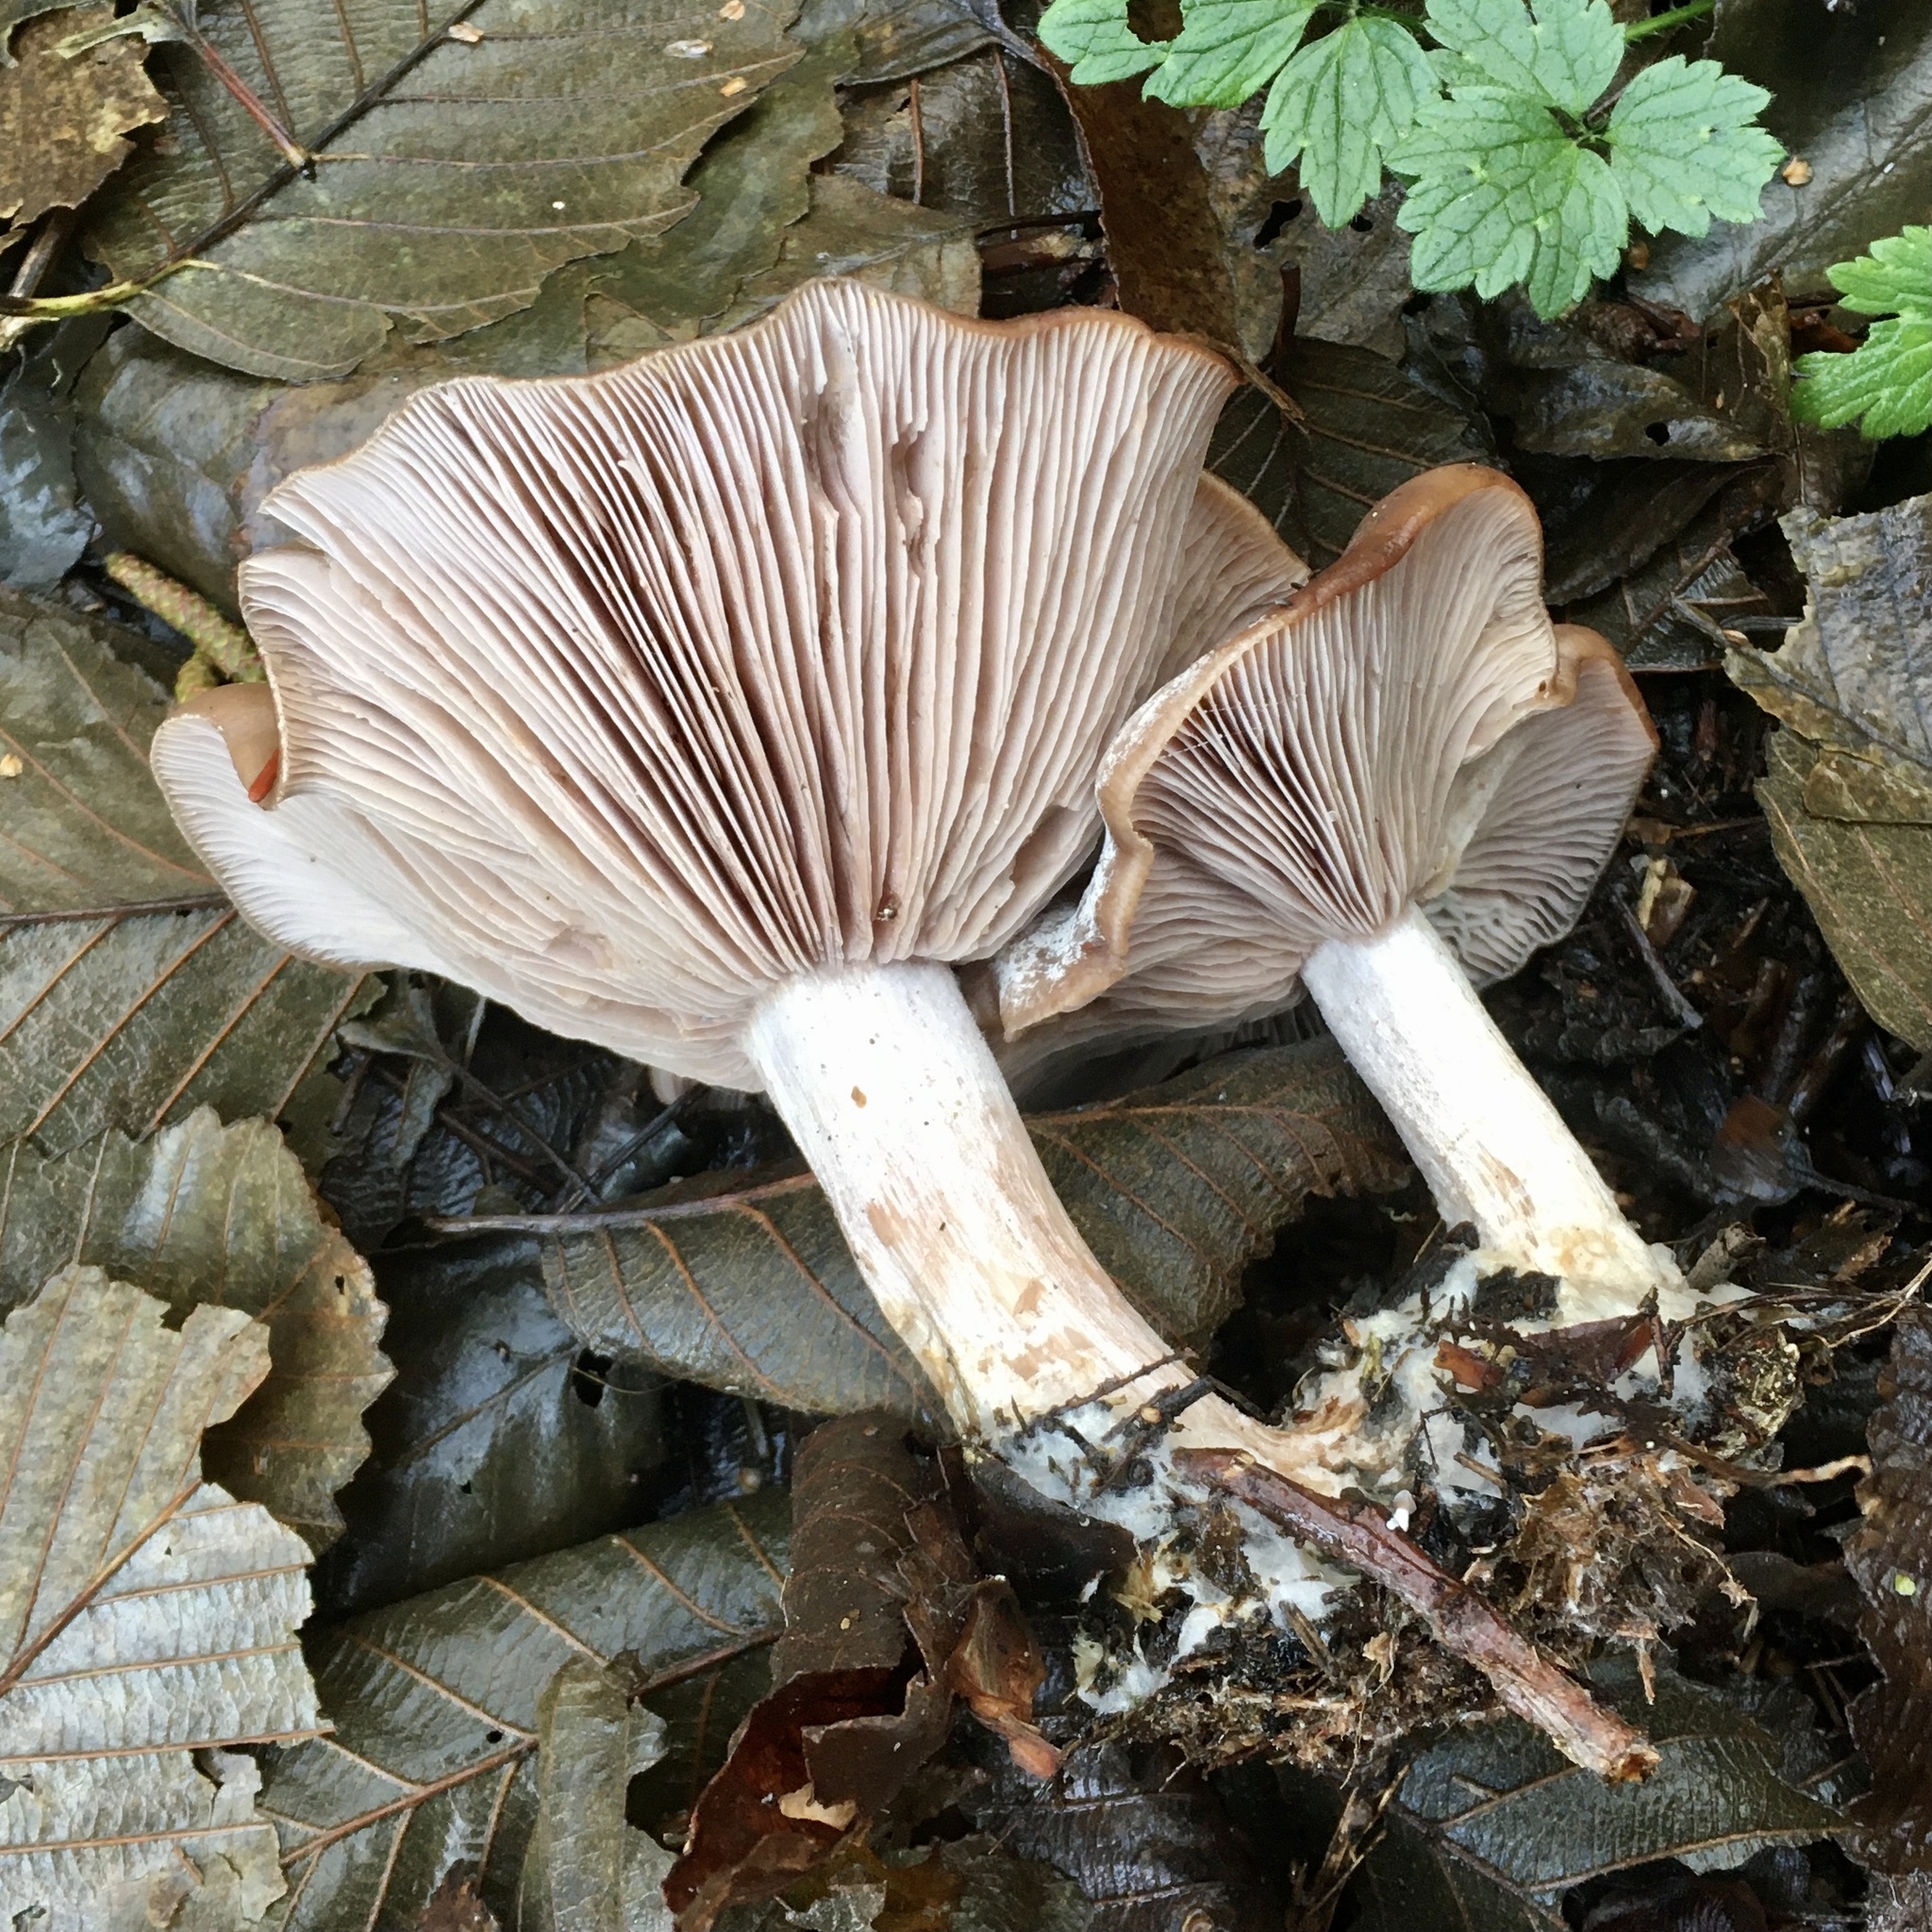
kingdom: Fungi
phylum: Basidiomycota
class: Agaricomycetes
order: Agaricales
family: Tricholomataceae
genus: Collybia
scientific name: Collybia
